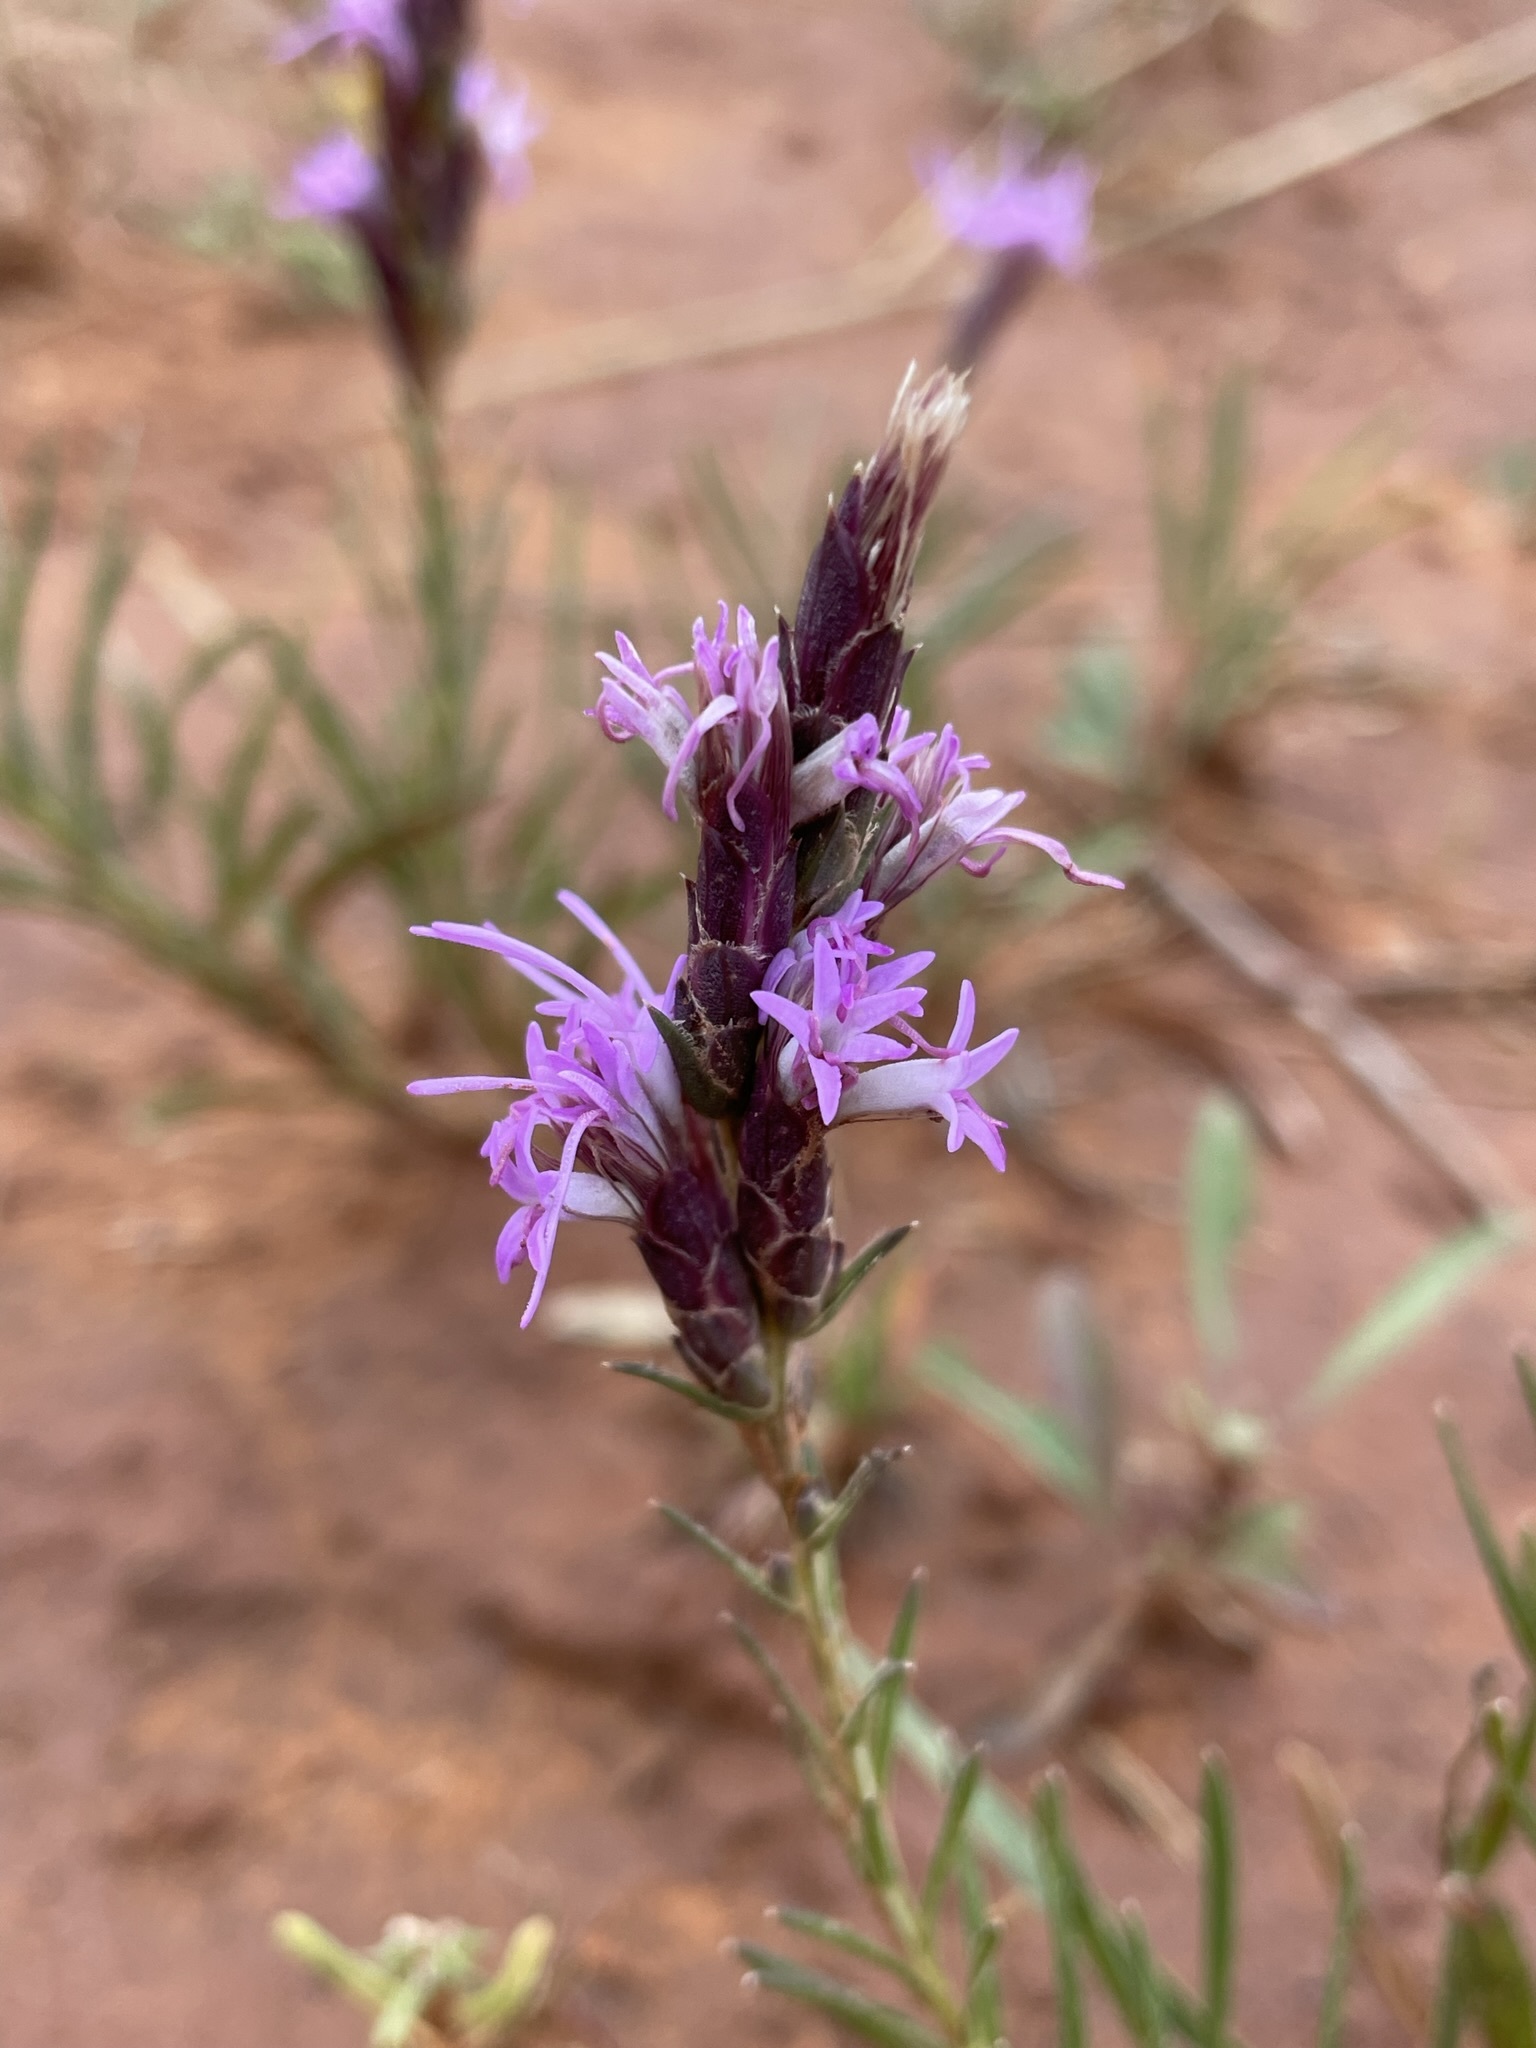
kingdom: Plantae
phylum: Tracheophyta
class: Magnoliopsida
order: Asterales
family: Asteraceae
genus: Liatris
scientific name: Liatris punctata
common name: Dotted gayfeather
